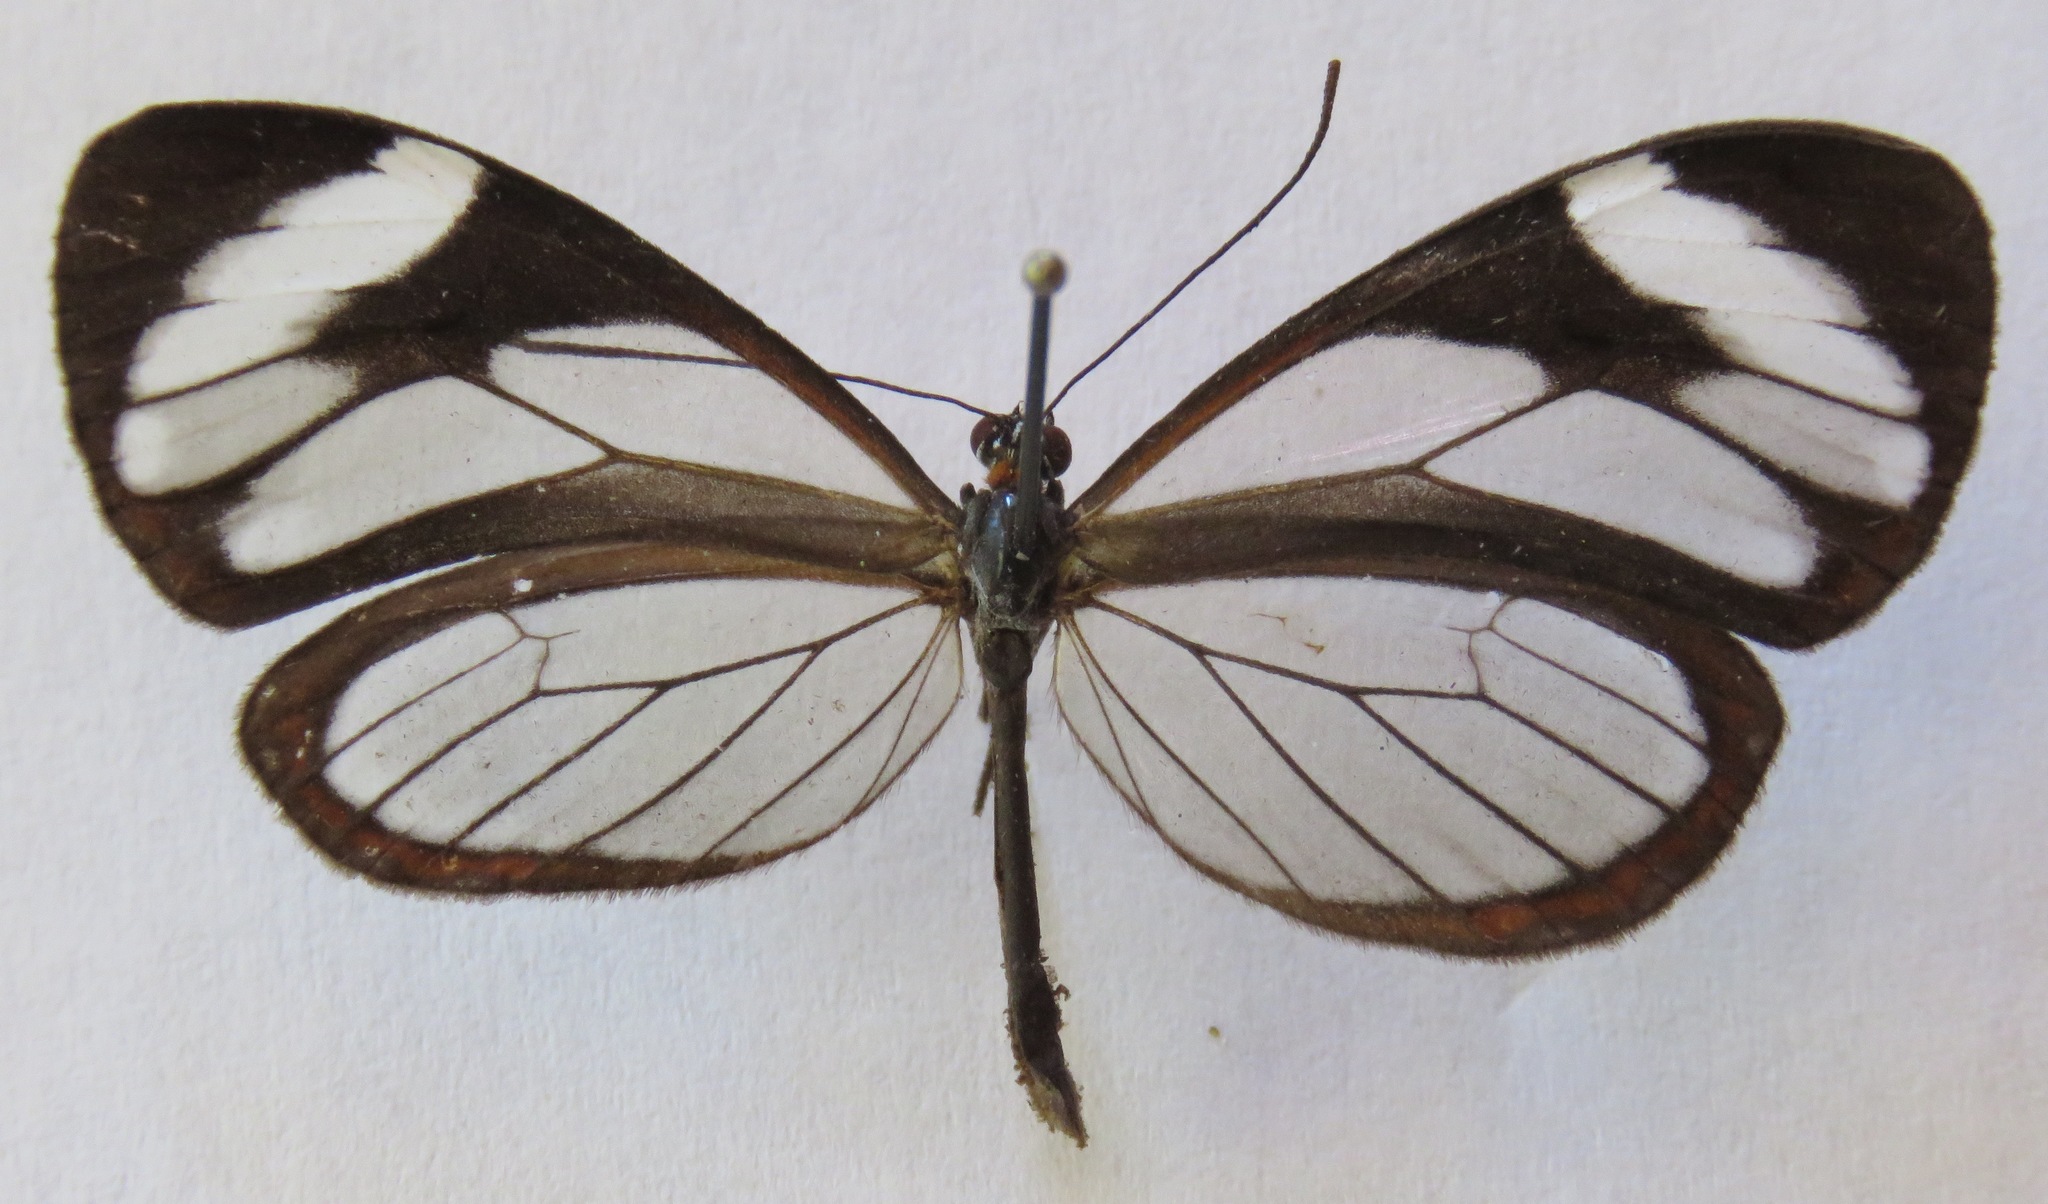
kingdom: Animalia
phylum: Arthropoda
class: Insecta
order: Lepidoptera
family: Nymphalidae
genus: Ithomia
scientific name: Ithomia patilla
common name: Patilla clearwing
